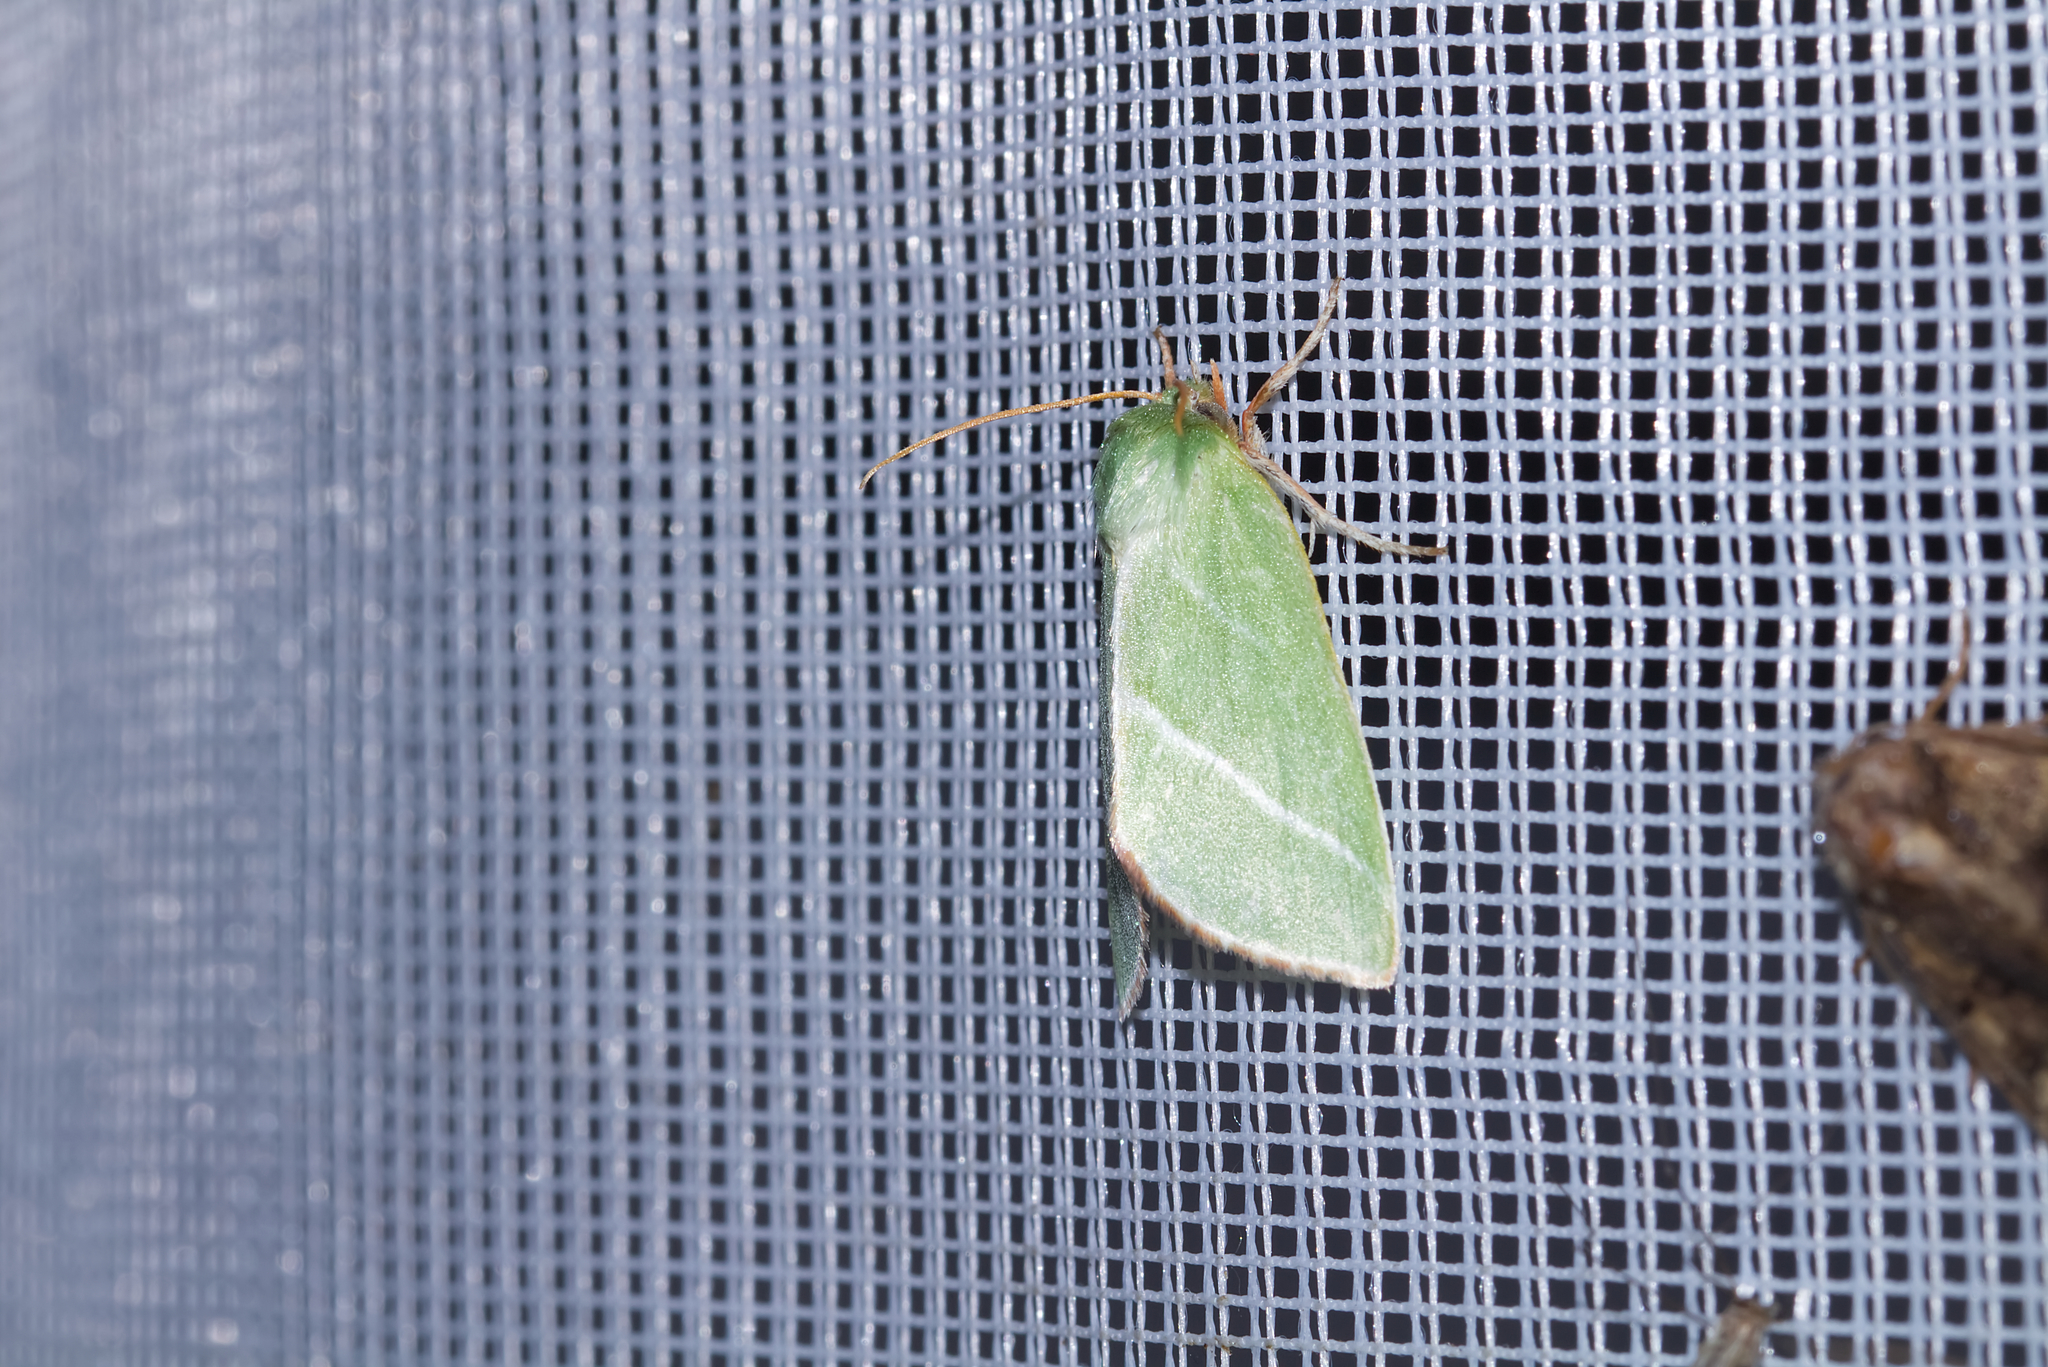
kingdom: Animalia
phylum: Arthropoda
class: Insecta
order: Lepidoptera
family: Nolidae
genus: Pseudoips
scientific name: Pseudoips prasinana
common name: Green silver-lines
